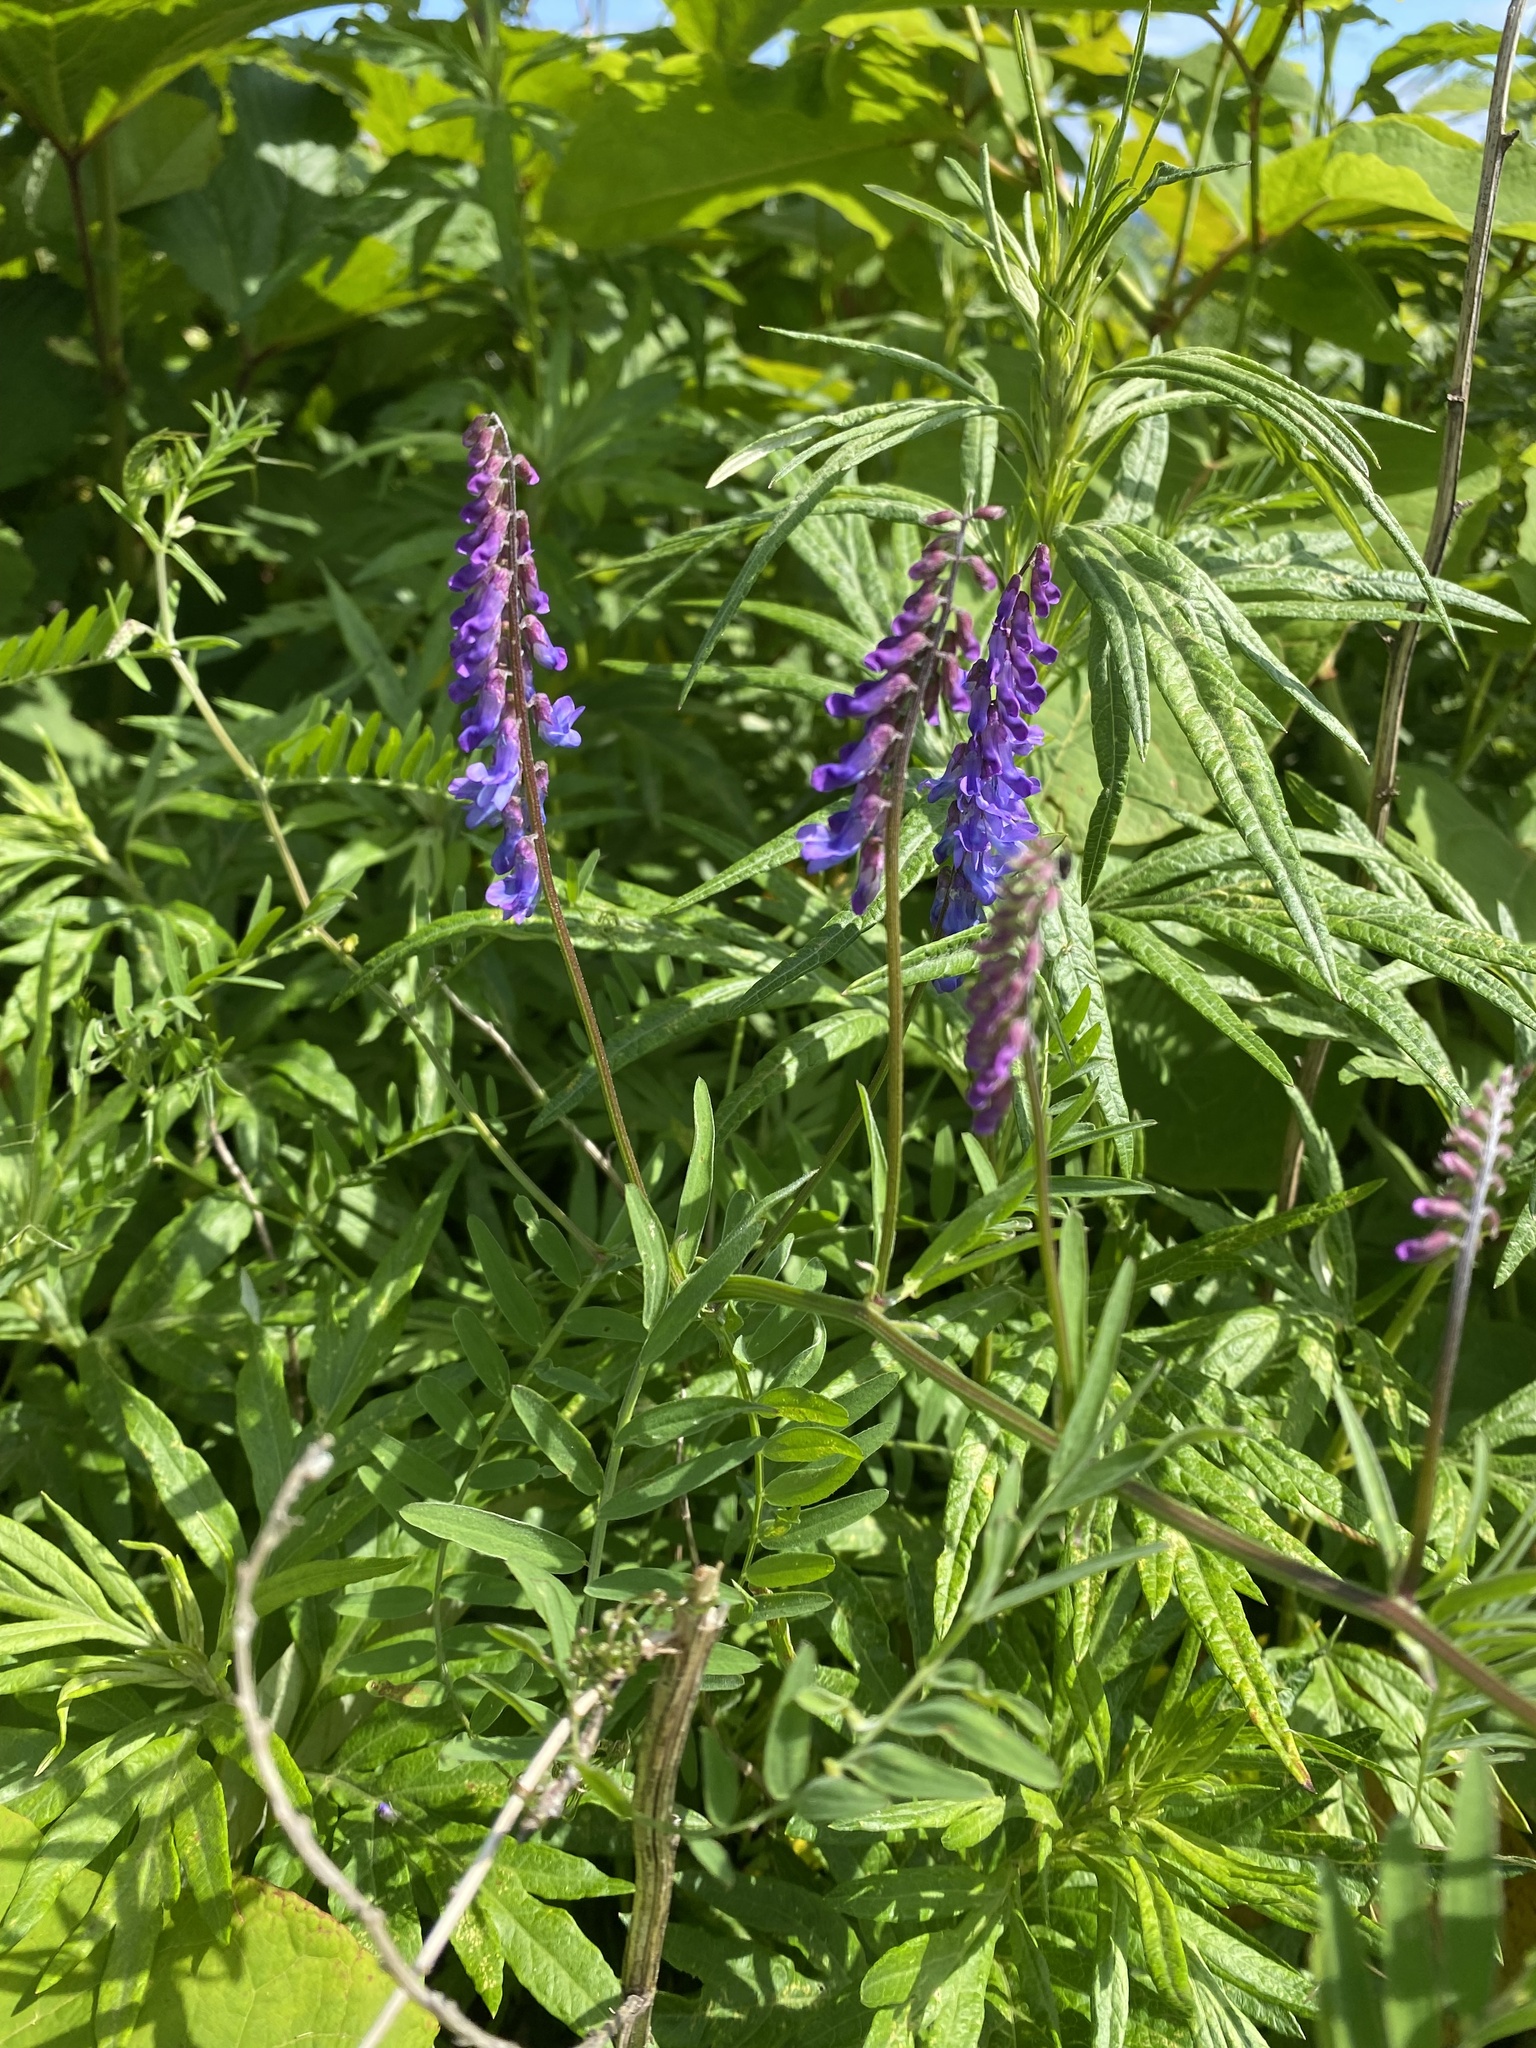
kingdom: Plantae
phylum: Tracheophyta
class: Magnoliopsida
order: Fabales
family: Fabaceae
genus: Vicia
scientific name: Vicia cracca
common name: Bird vetch
